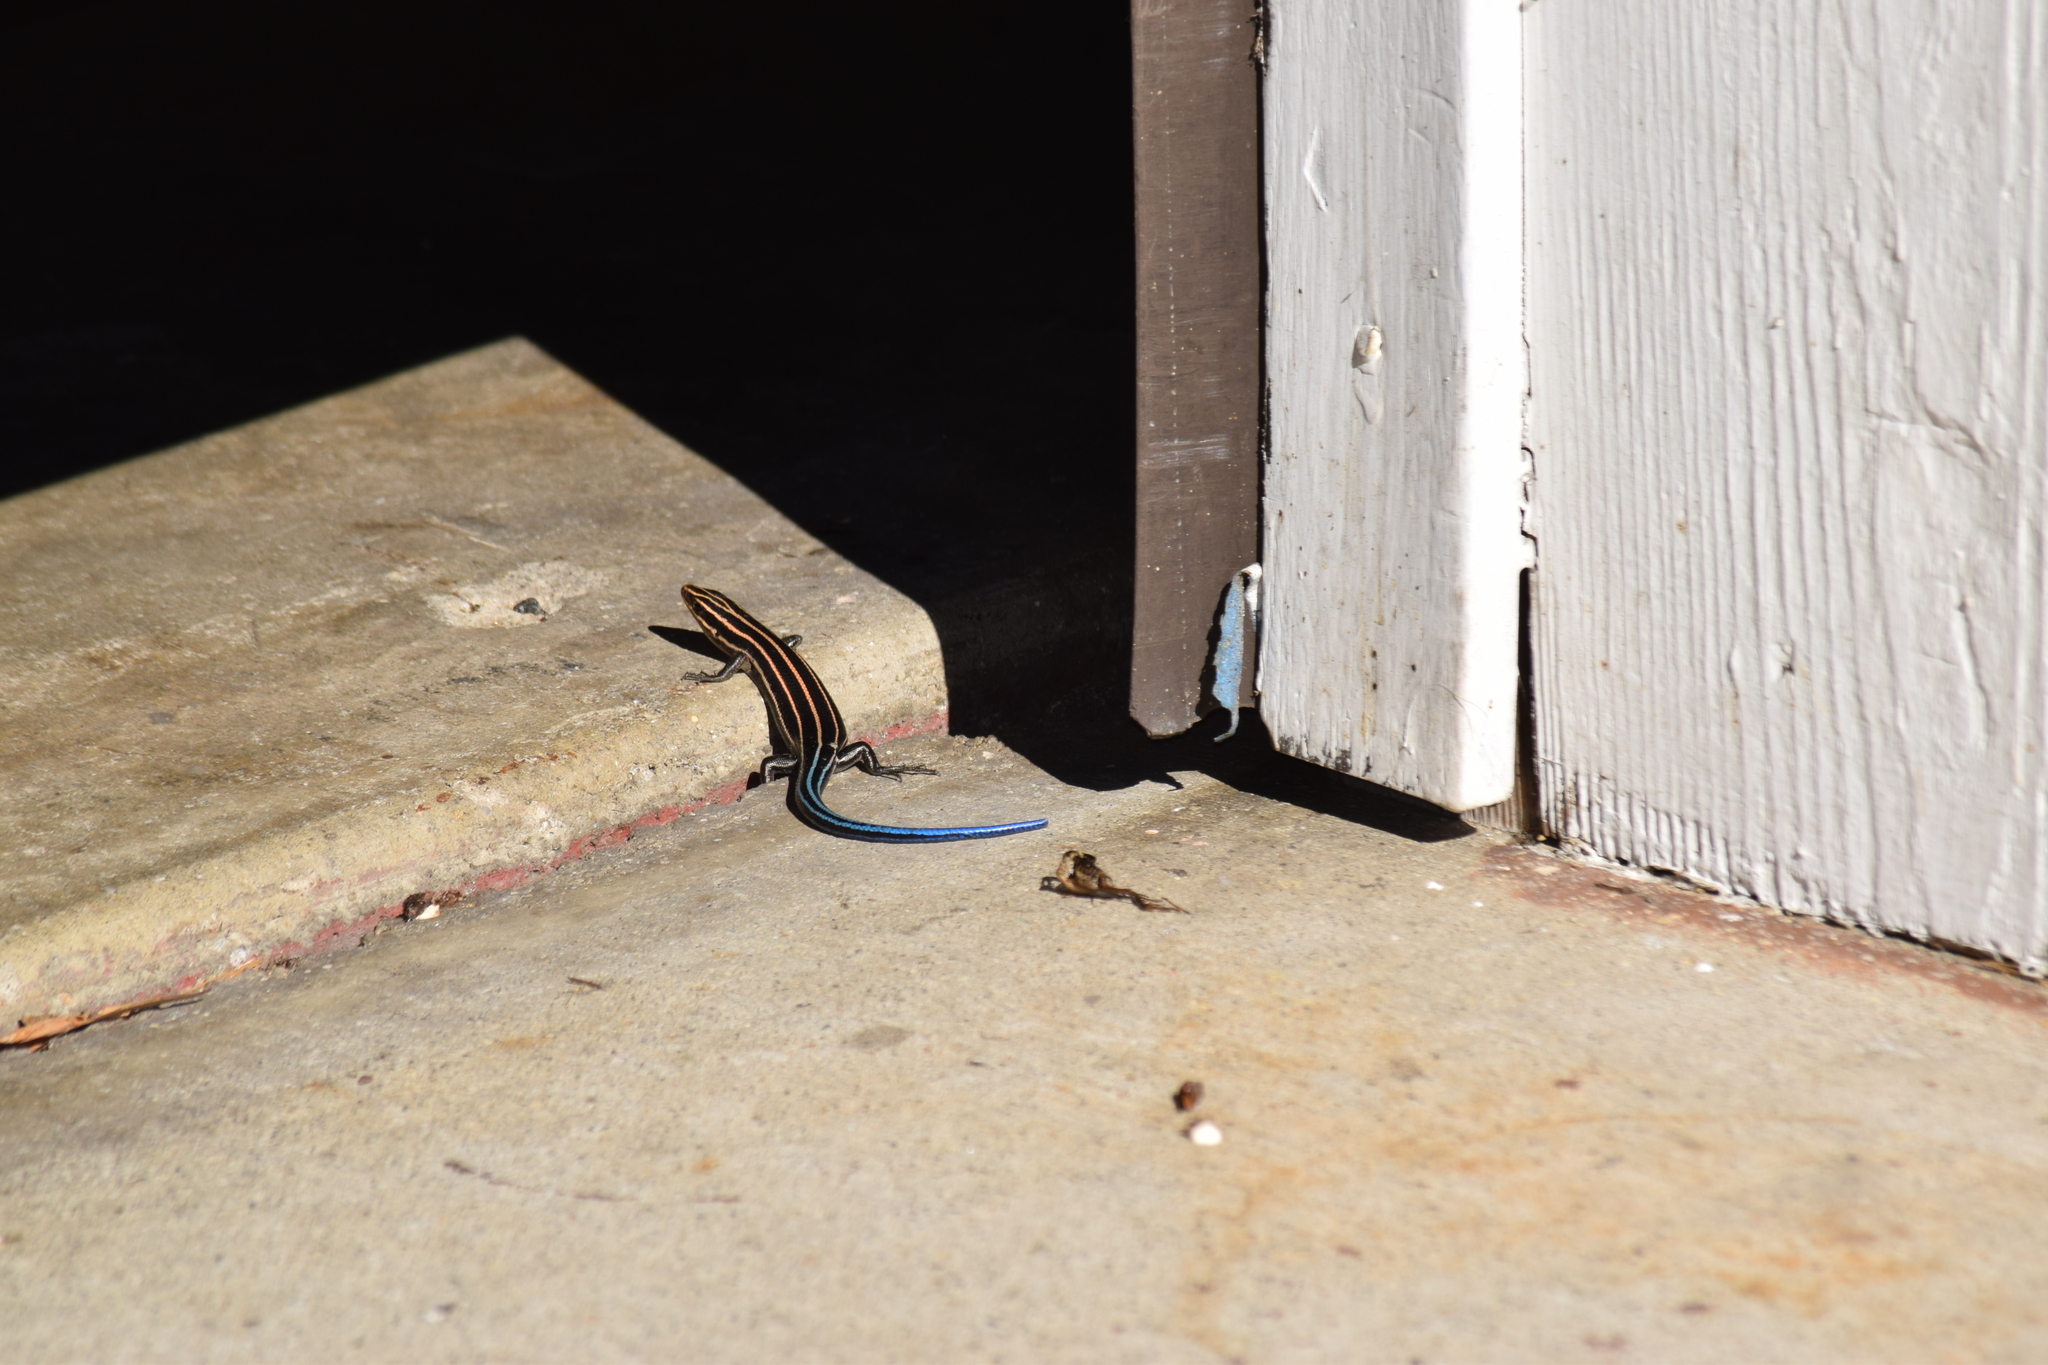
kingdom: Animalia
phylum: Chordata
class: Squamata
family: Scincidae
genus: Plestiodon
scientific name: Plestiodon
